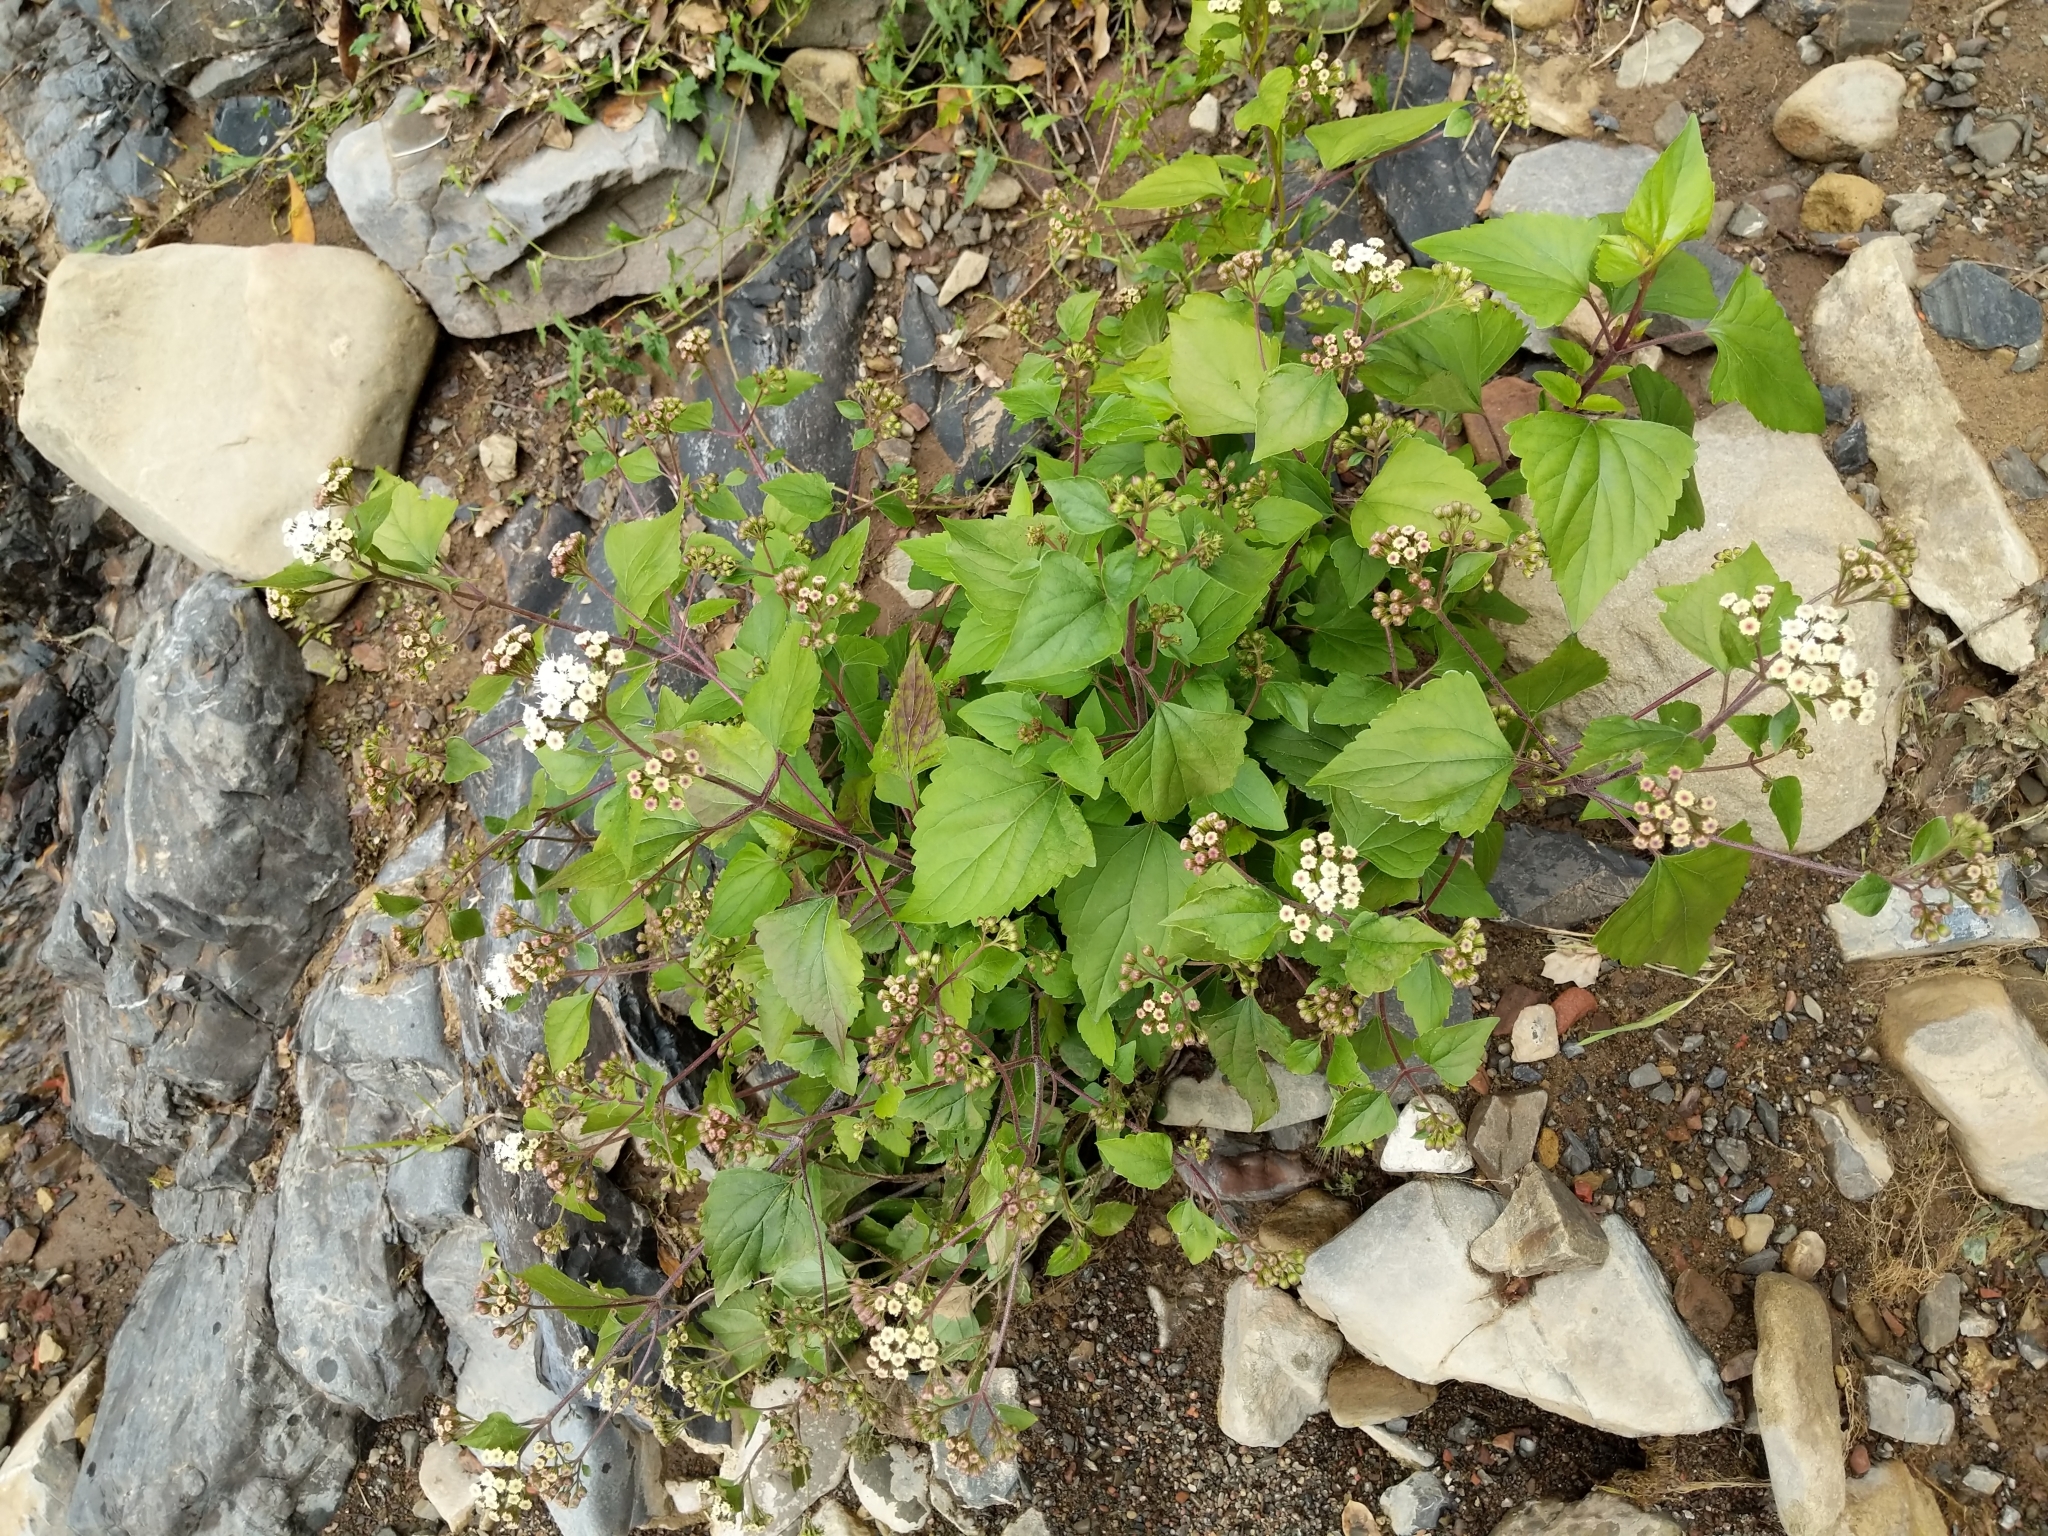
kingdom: Plantae
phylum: Tracheophyta
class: Magnoliopsida
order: Asterales
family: Asteraceae
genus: Ageratina
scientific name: Ageratina adenophora
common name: Sticky snakeroot
